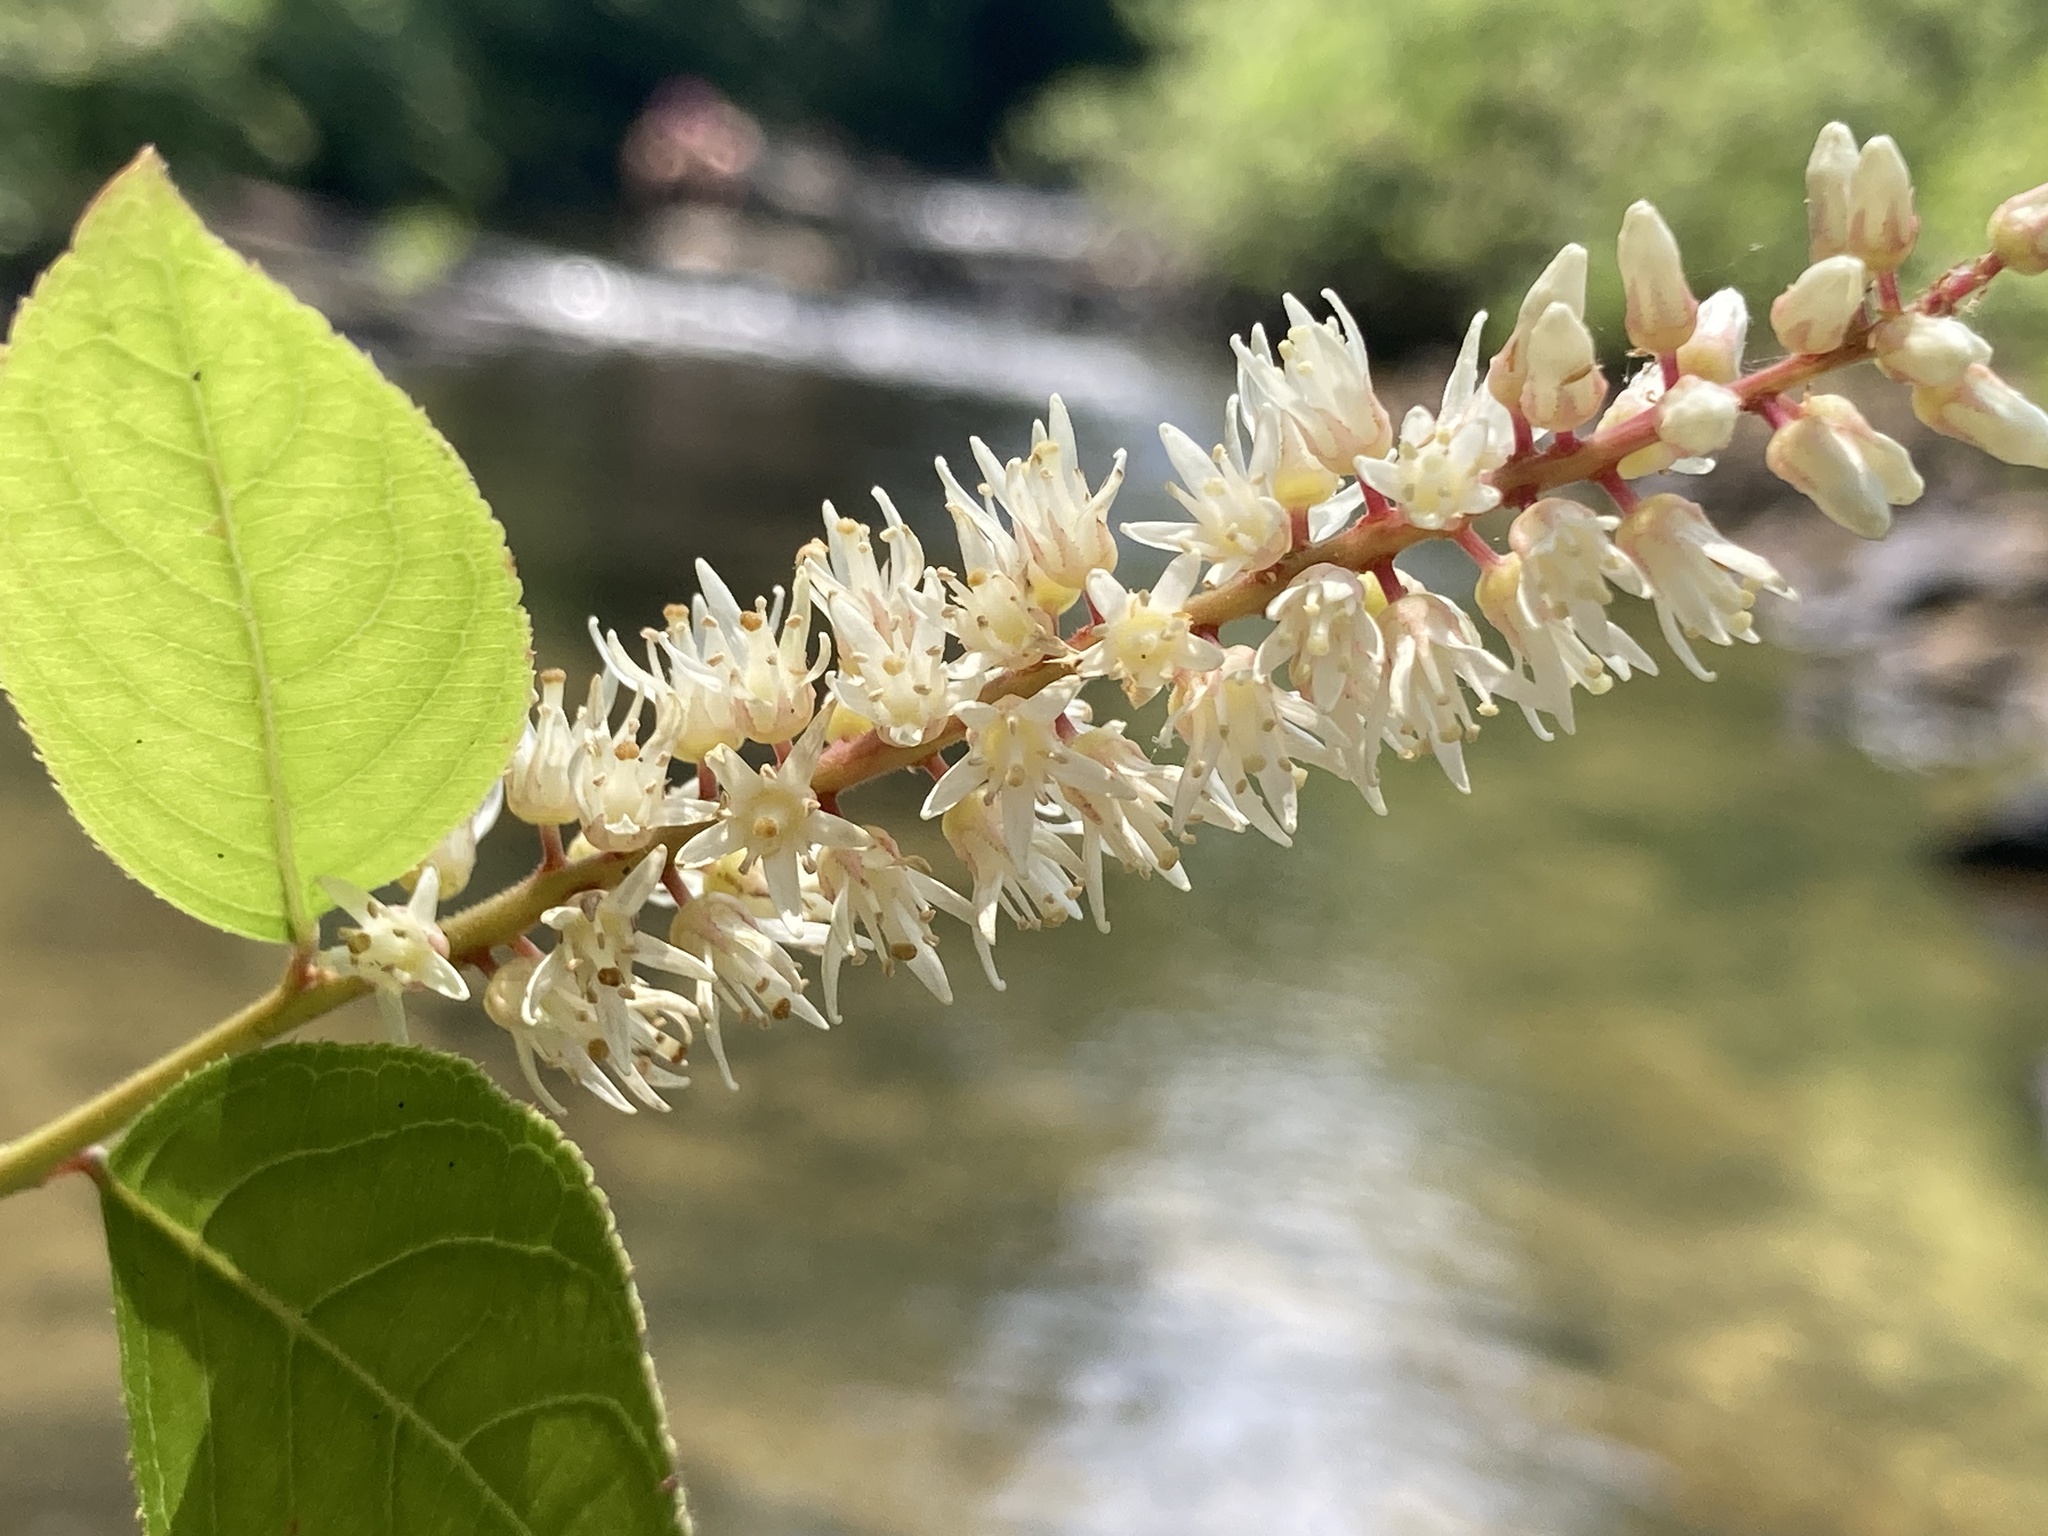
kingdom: Plantae
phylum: Tracheophyta
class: Magnoliopsida
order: Saxifragales
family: Iteaceae
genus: Itea
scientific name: Itea virginica
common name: Sweetspire
